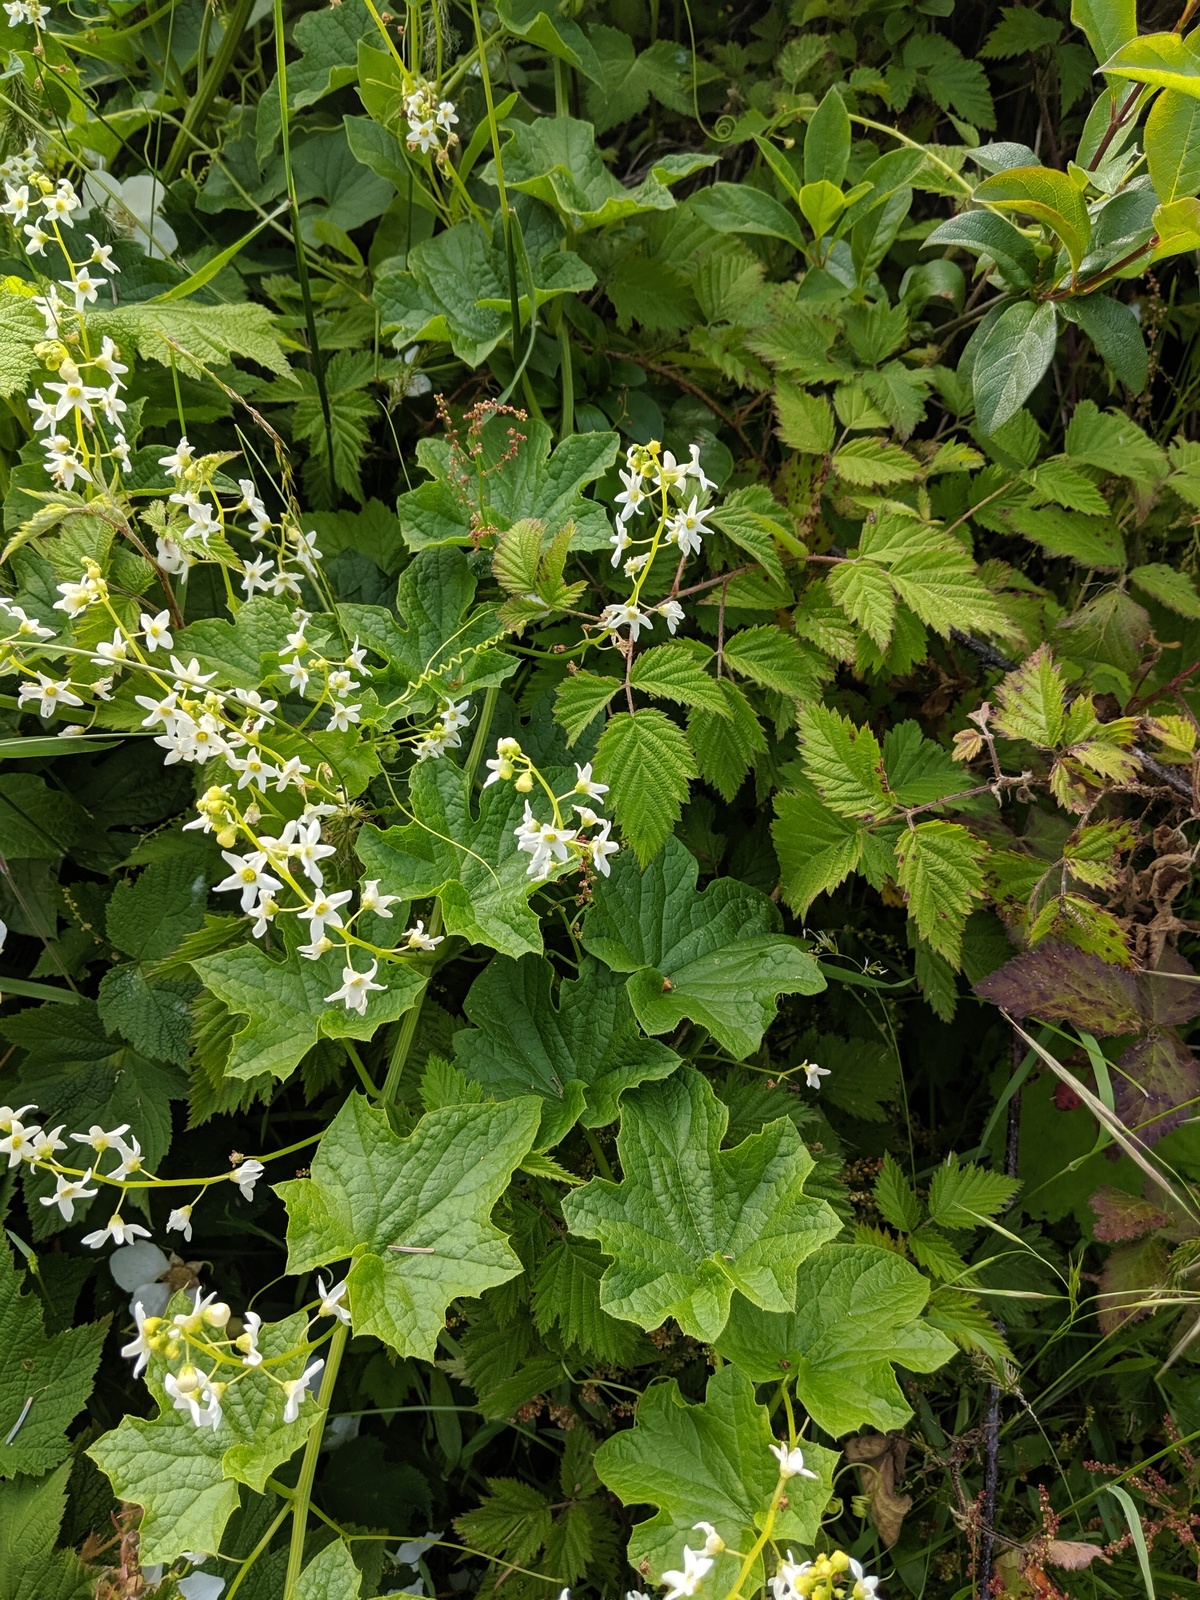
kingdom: Plantae
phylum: Tracheophyta
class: Magnoliopsida
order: Cucurbitales
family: Cucurbitaceae
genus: Marah
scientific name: Marah oregana
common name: Coastal manroot
